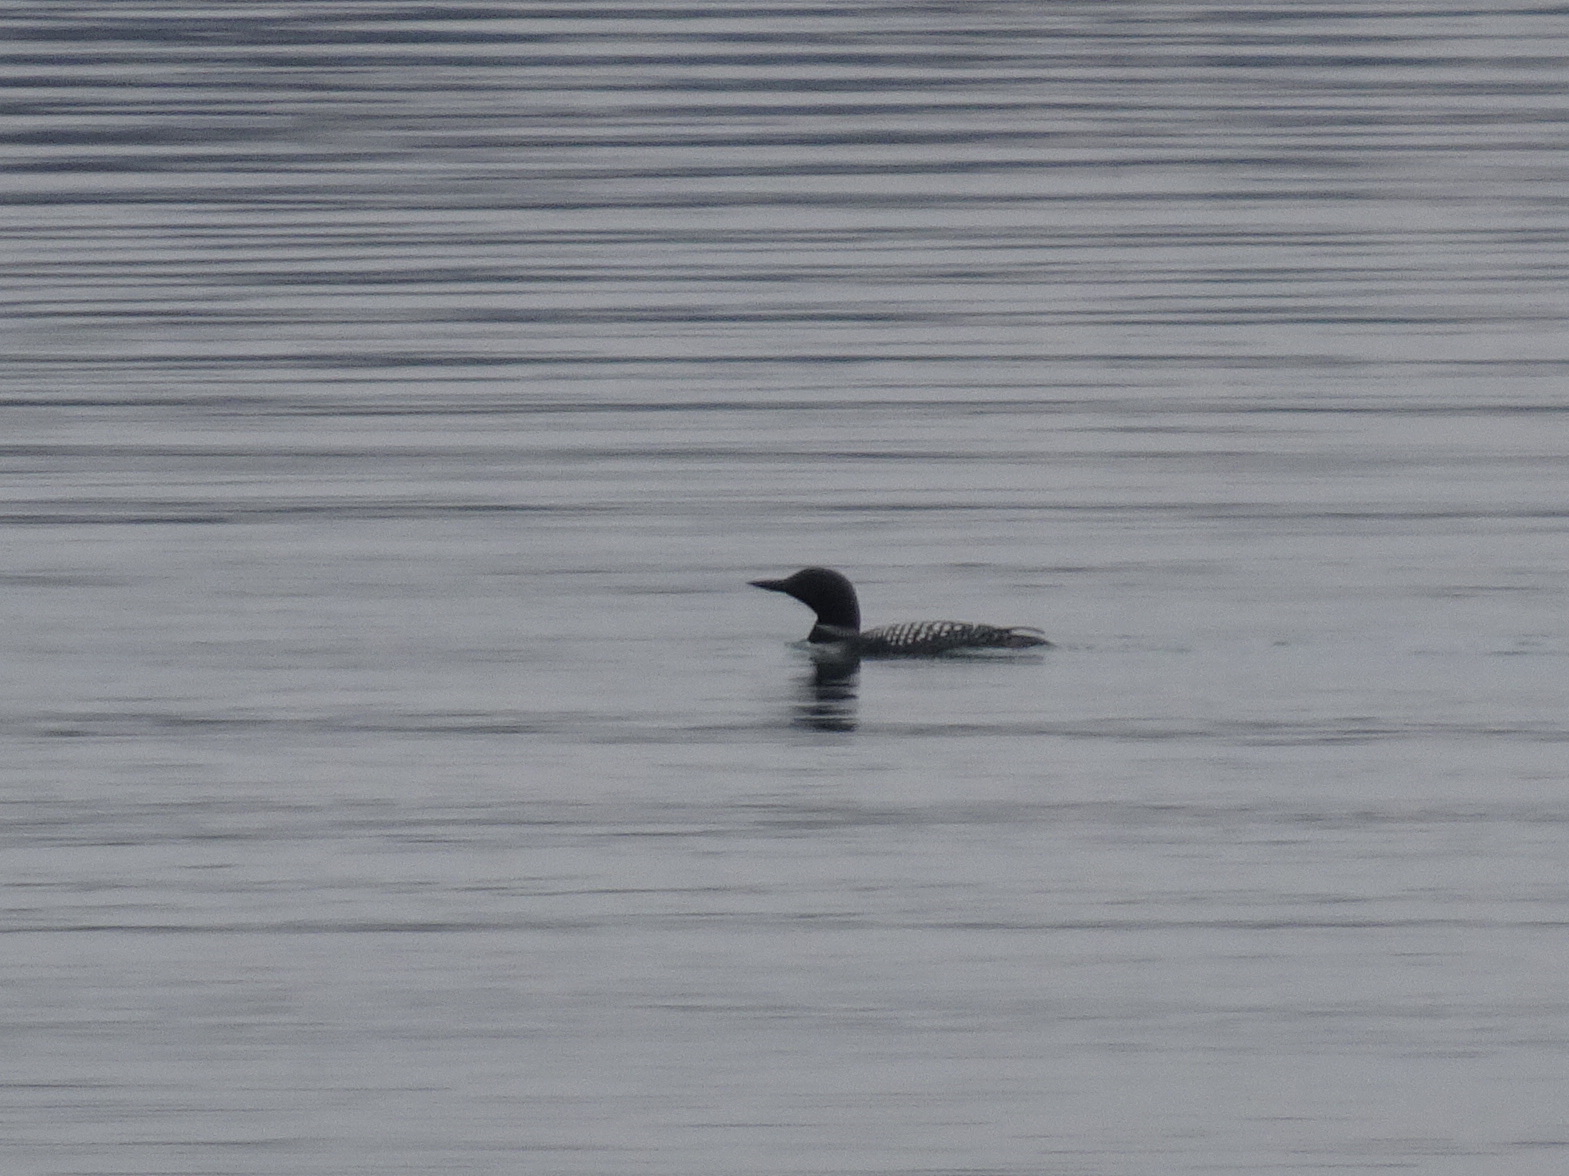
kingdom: Animalia
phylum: Chordata
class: Aves
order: Gaviiformes
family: Gaviidae
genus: Gavia
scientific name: Gavia immer
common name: Common loon
